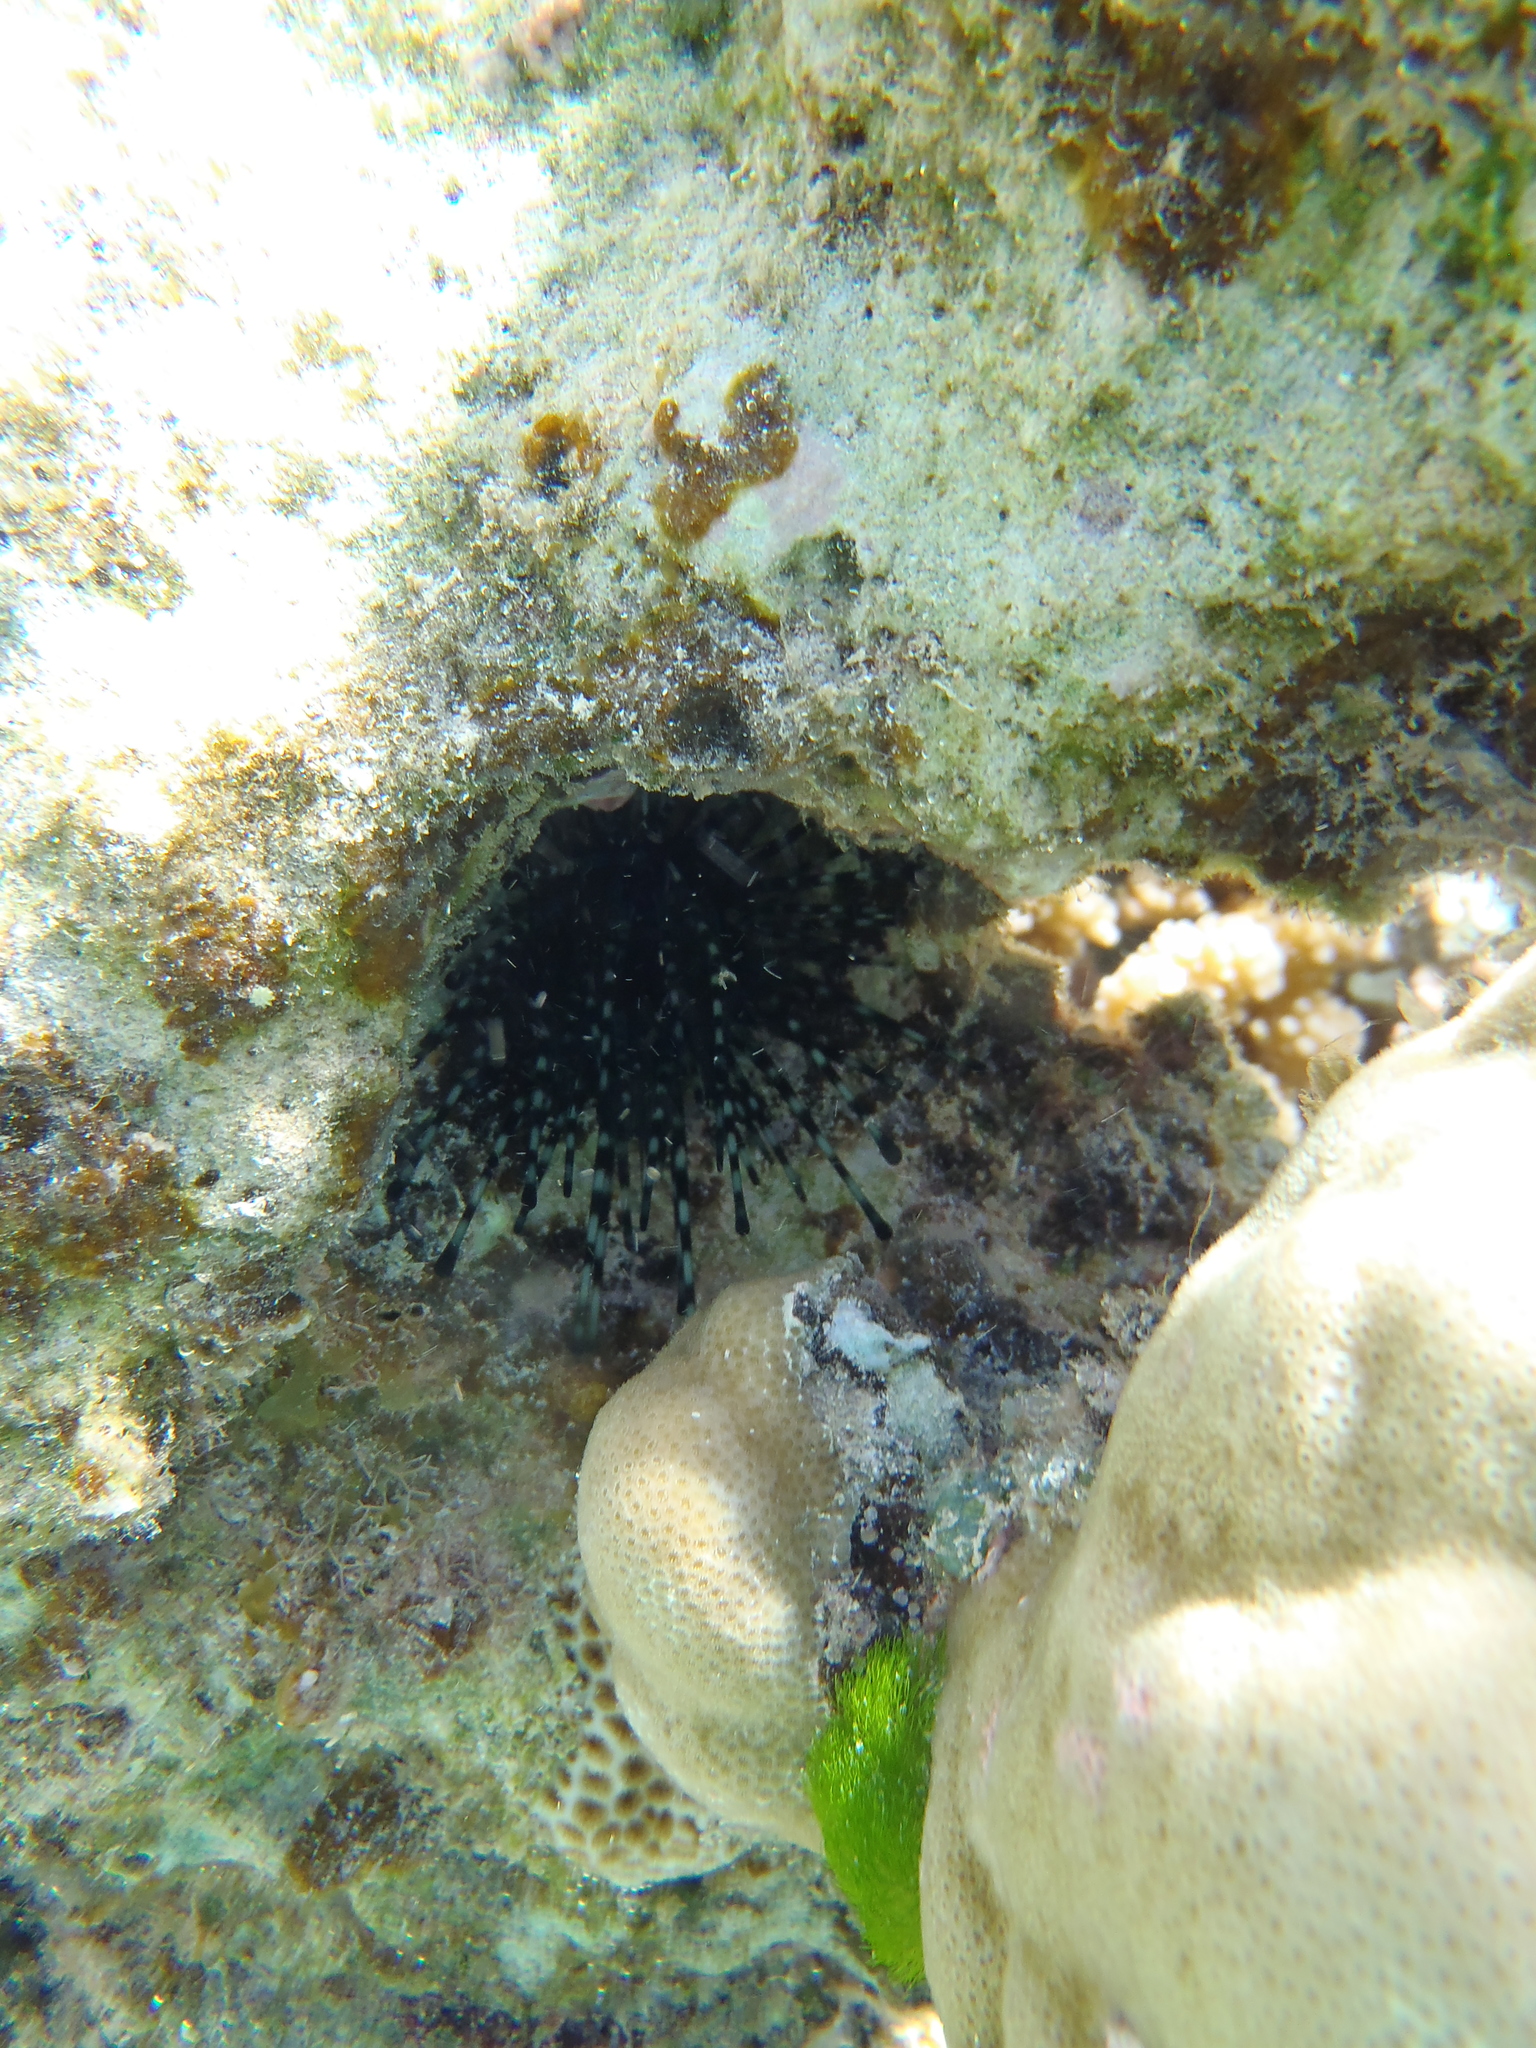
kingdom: Animalia
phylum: Echinodermata
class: Echinoidea
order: Diadematoida
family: Diadematidae
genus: Echinothrix
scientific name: Echinothrix calamaris
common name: Banded sea urchin
